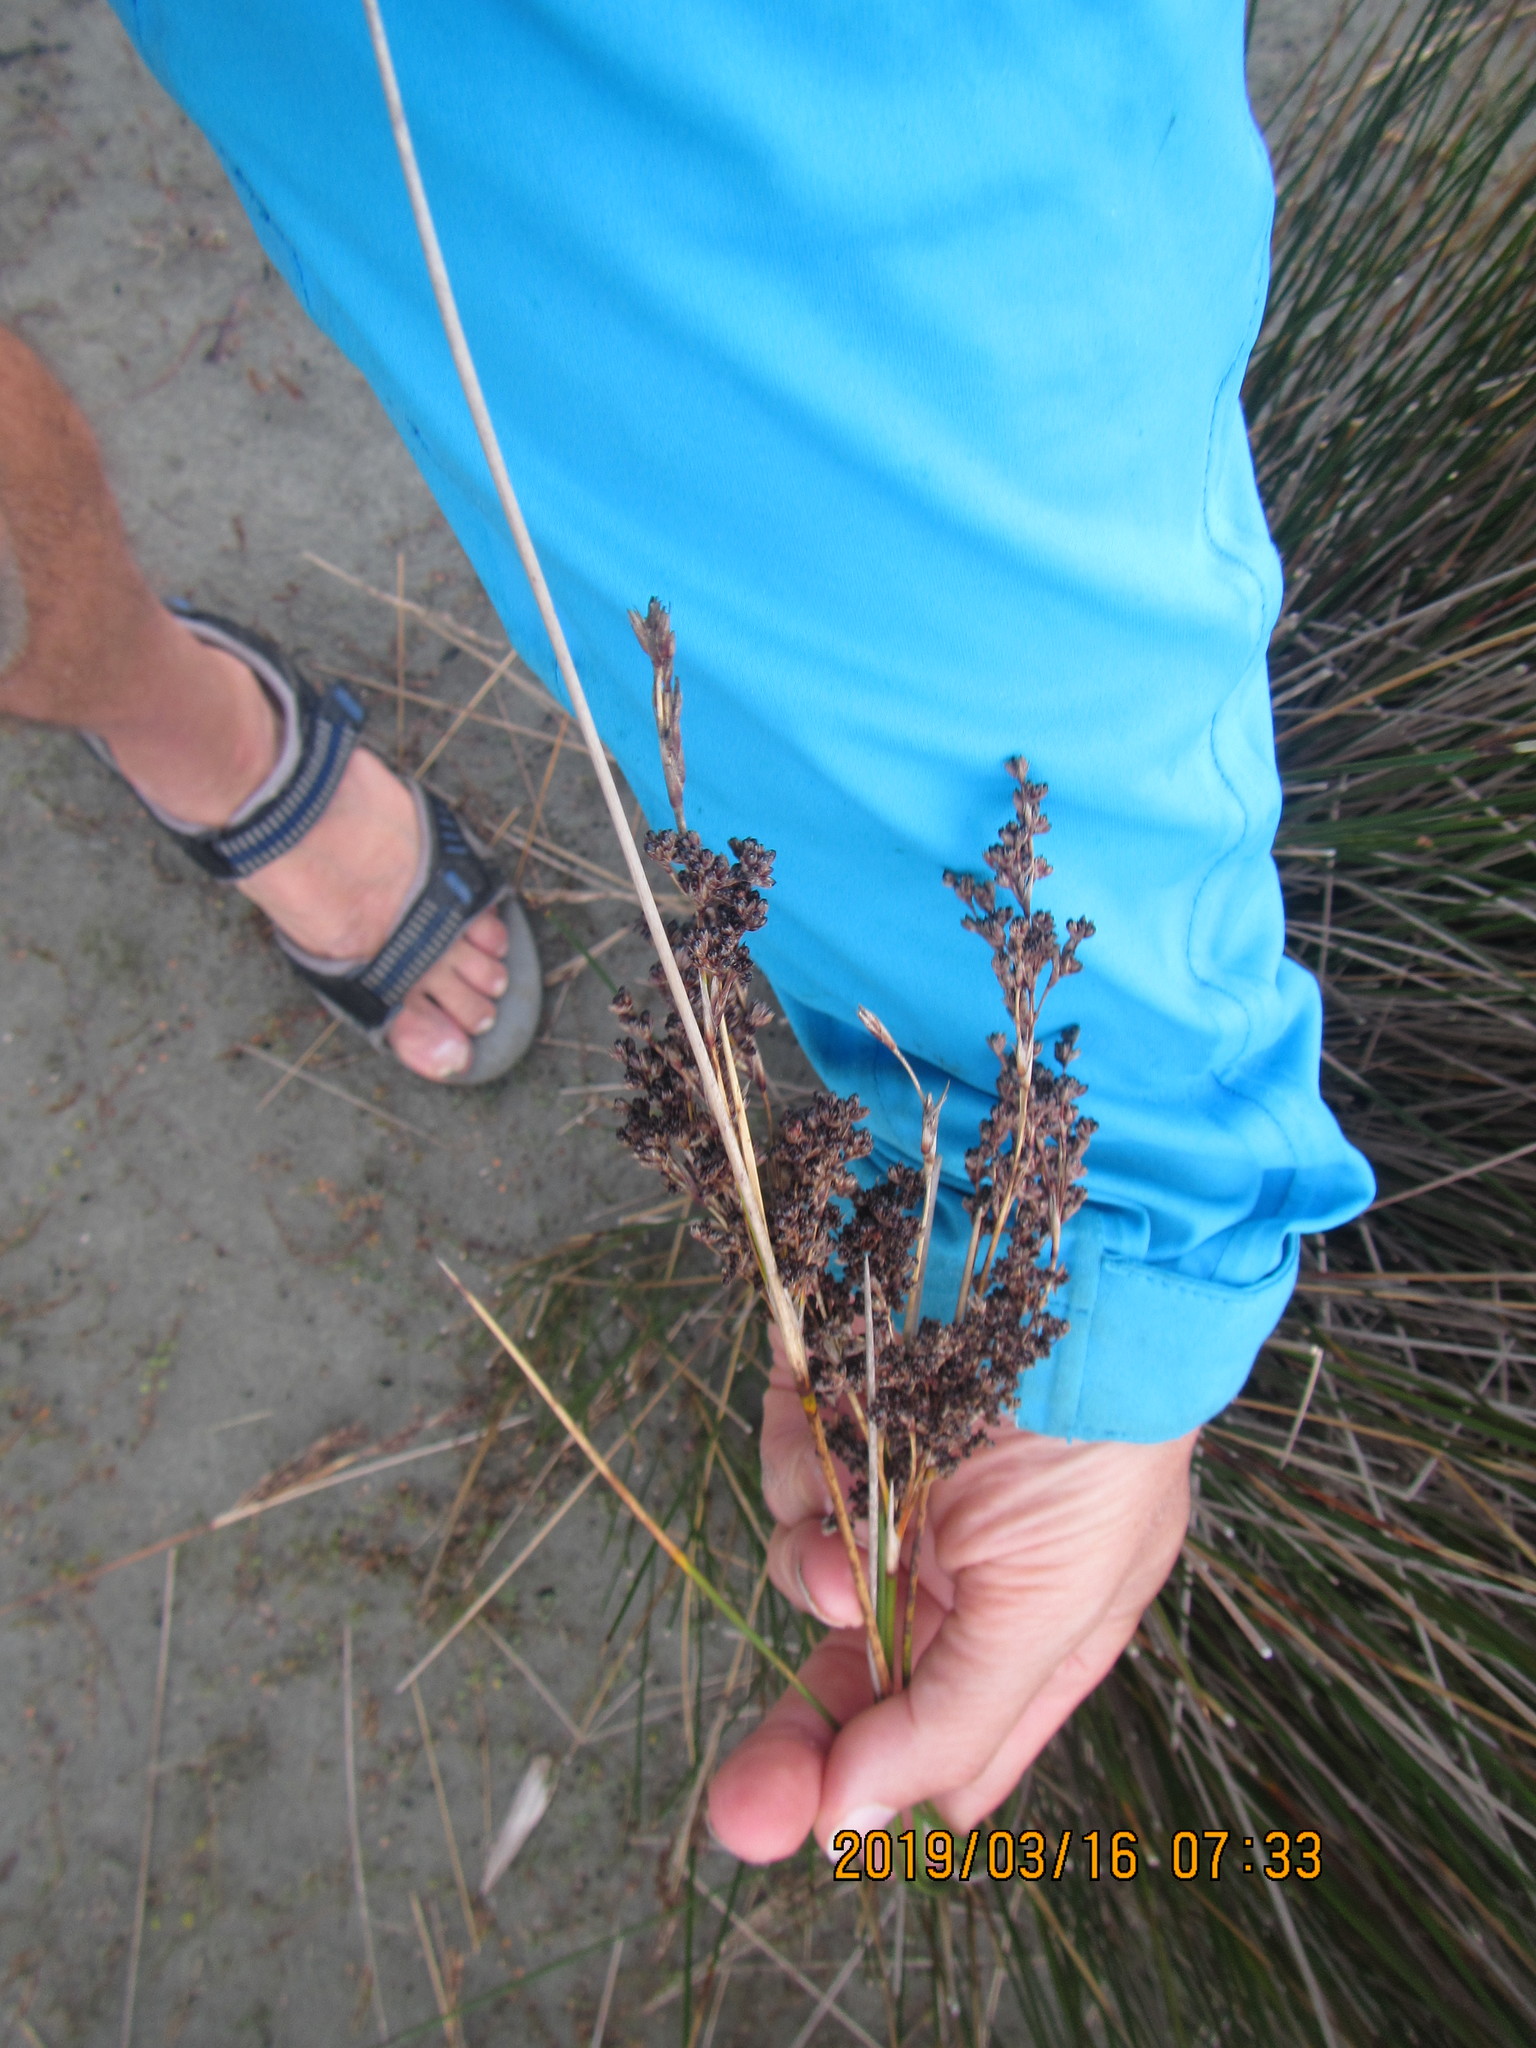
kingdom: Plantae
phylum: Tracheophyta
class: Liliopsida
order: Poales
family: Juncaceae
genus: Juncus
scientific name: Juncus kraussii
